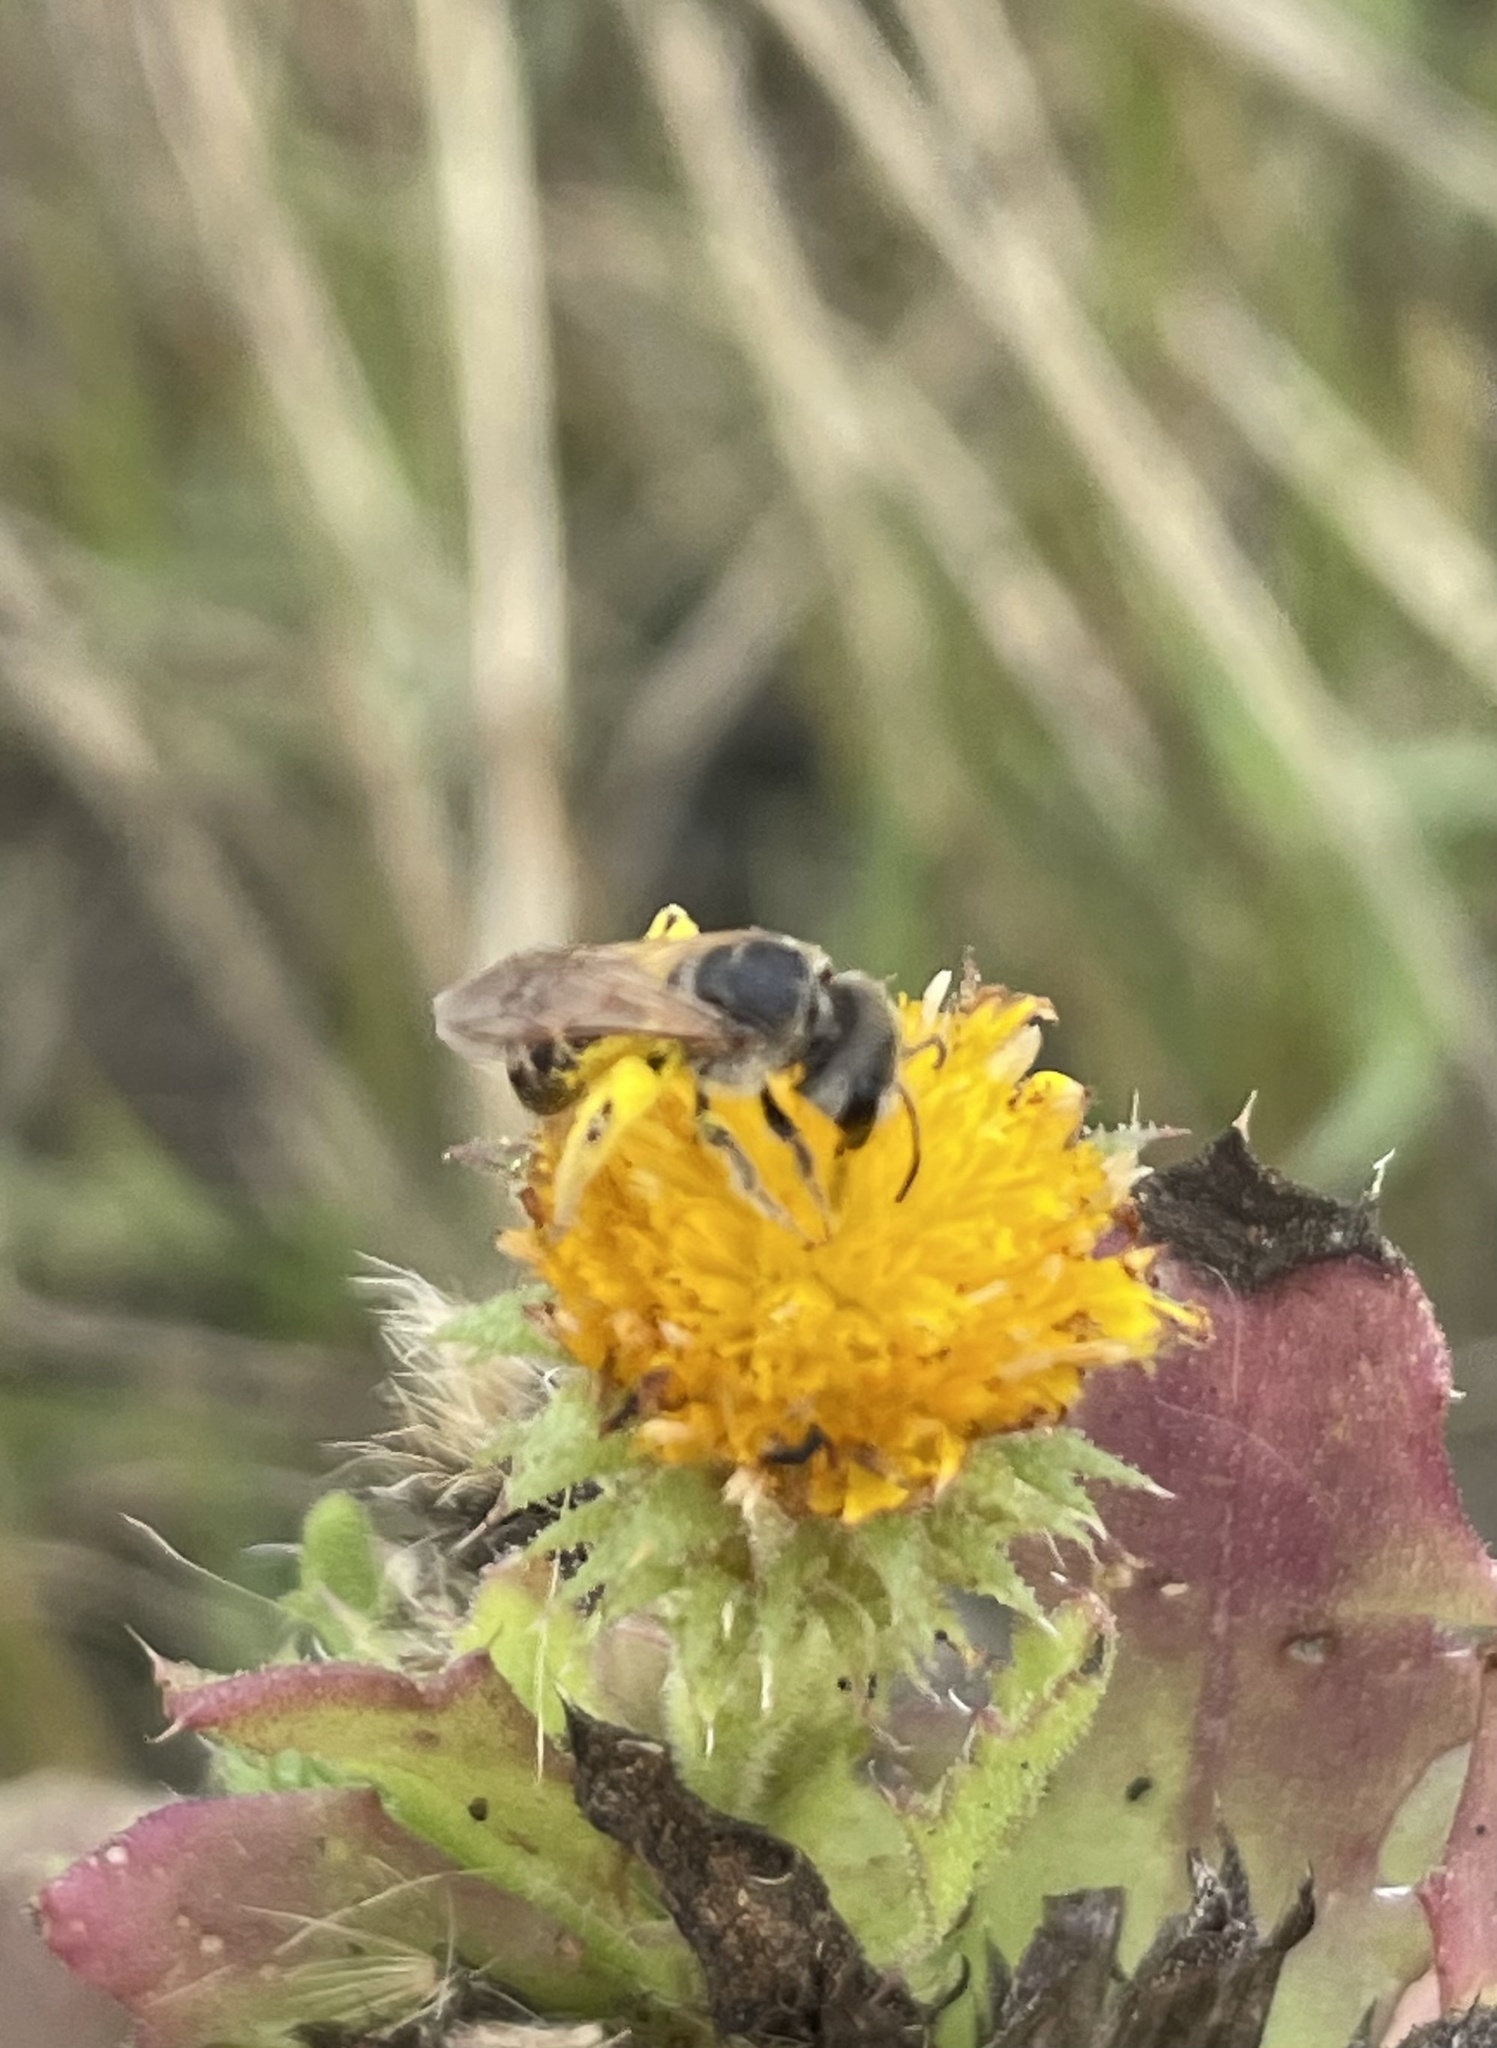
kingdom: Animalia
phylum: Arthropoda
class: Insecta
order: Hymenoptera
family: Halictidae
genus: Halictus
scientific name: Halictus ligatus
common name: Ligated furrow bee
